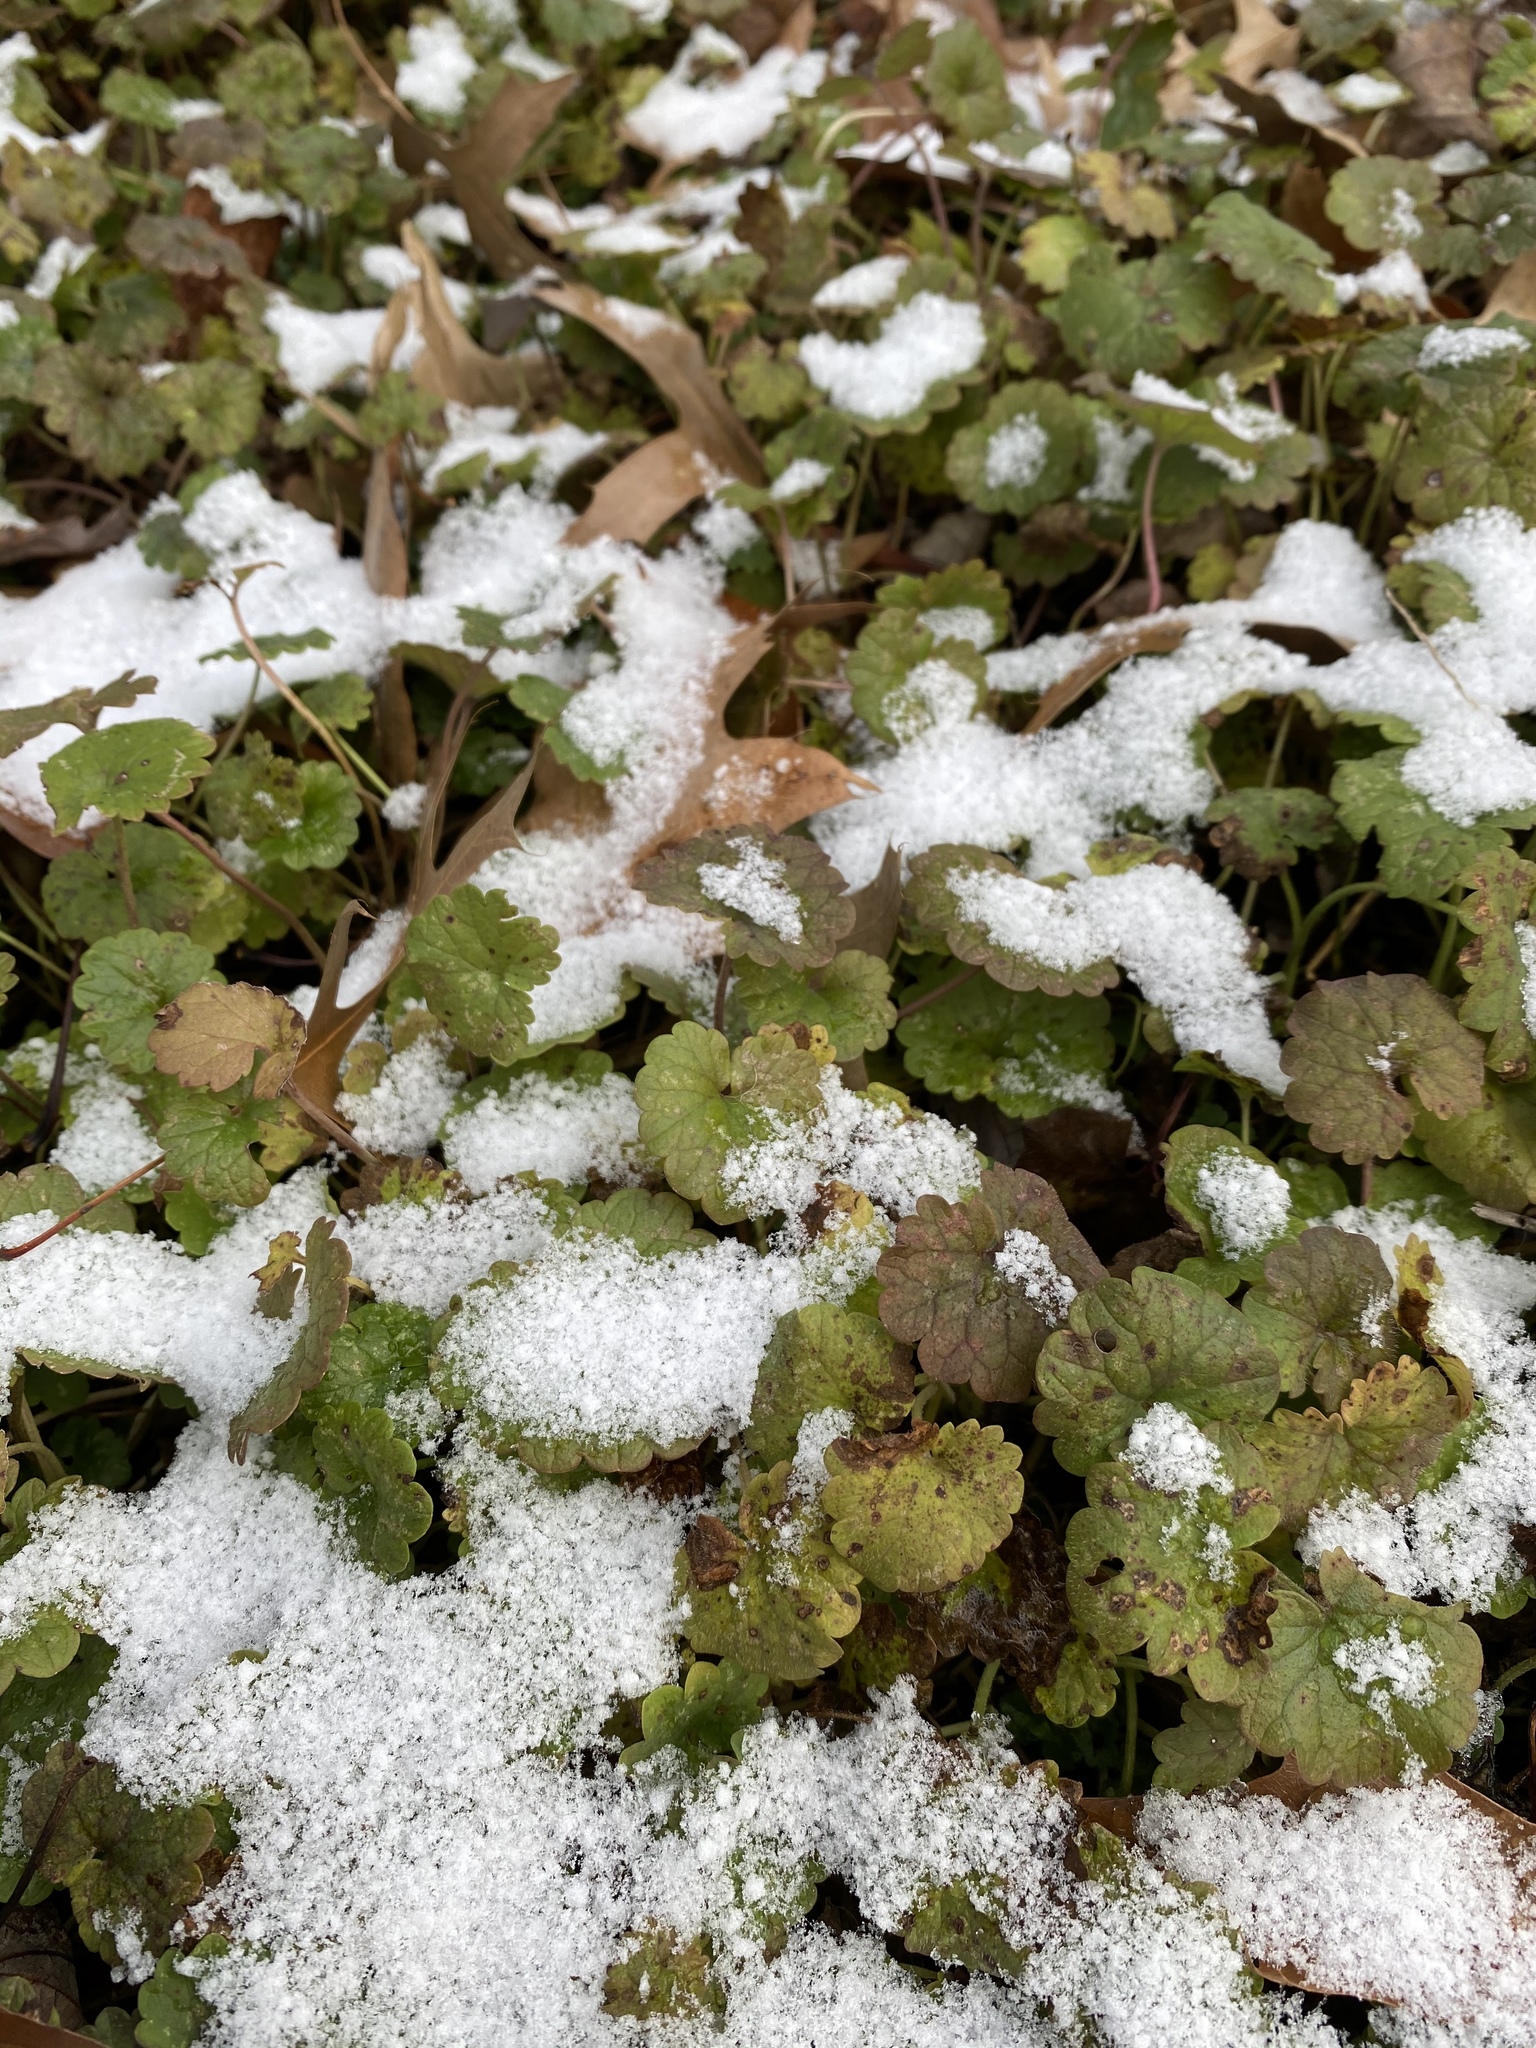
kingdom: Plantae
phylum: Tracheophyta
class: Magnoliopsida
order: Lamiales
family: Lamiaceae
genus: Glechoma
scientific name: Glechoma hederacea
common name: Ground ivy
